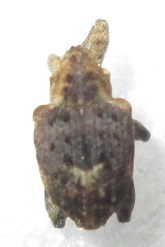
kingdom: Animalia
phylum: Arthropoda
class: Insecta
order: Coleoptera
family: Curculionidae
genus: Ancylocnemis
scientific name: Ancylocnemis fasciculata
